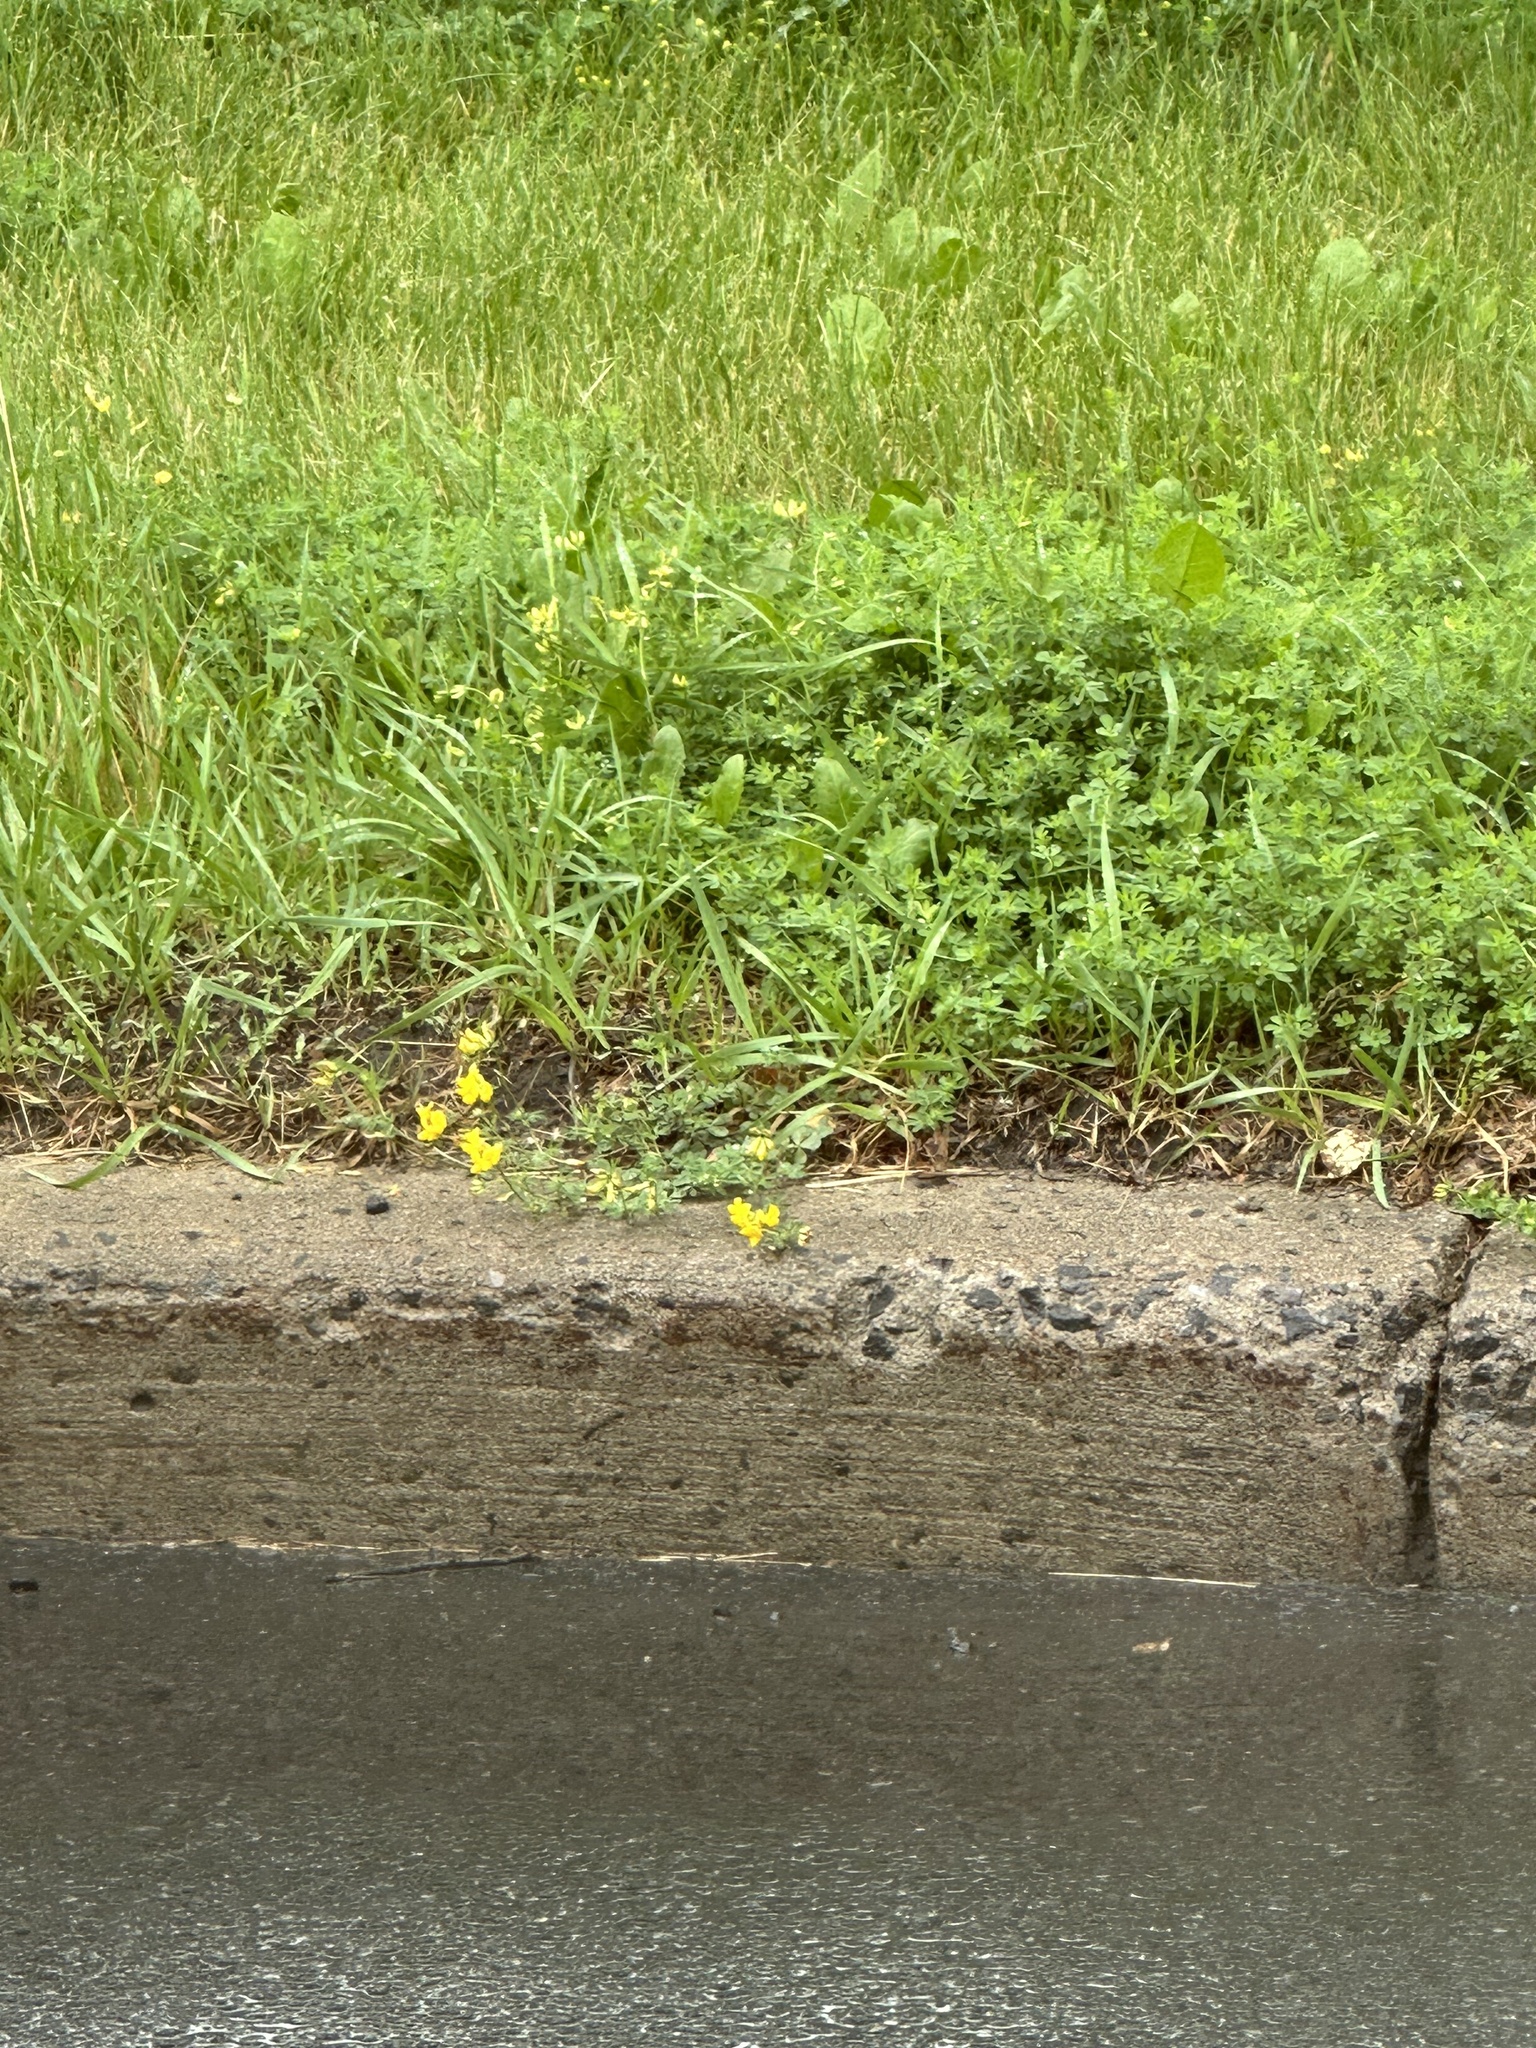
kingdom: Plantae
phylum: Tracheophyta
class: Magnoliopsida
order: Fabales
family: Fabaceae
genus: Lotus
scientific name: Lotus corniculatus
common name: Common bird's-foot-trefoil
